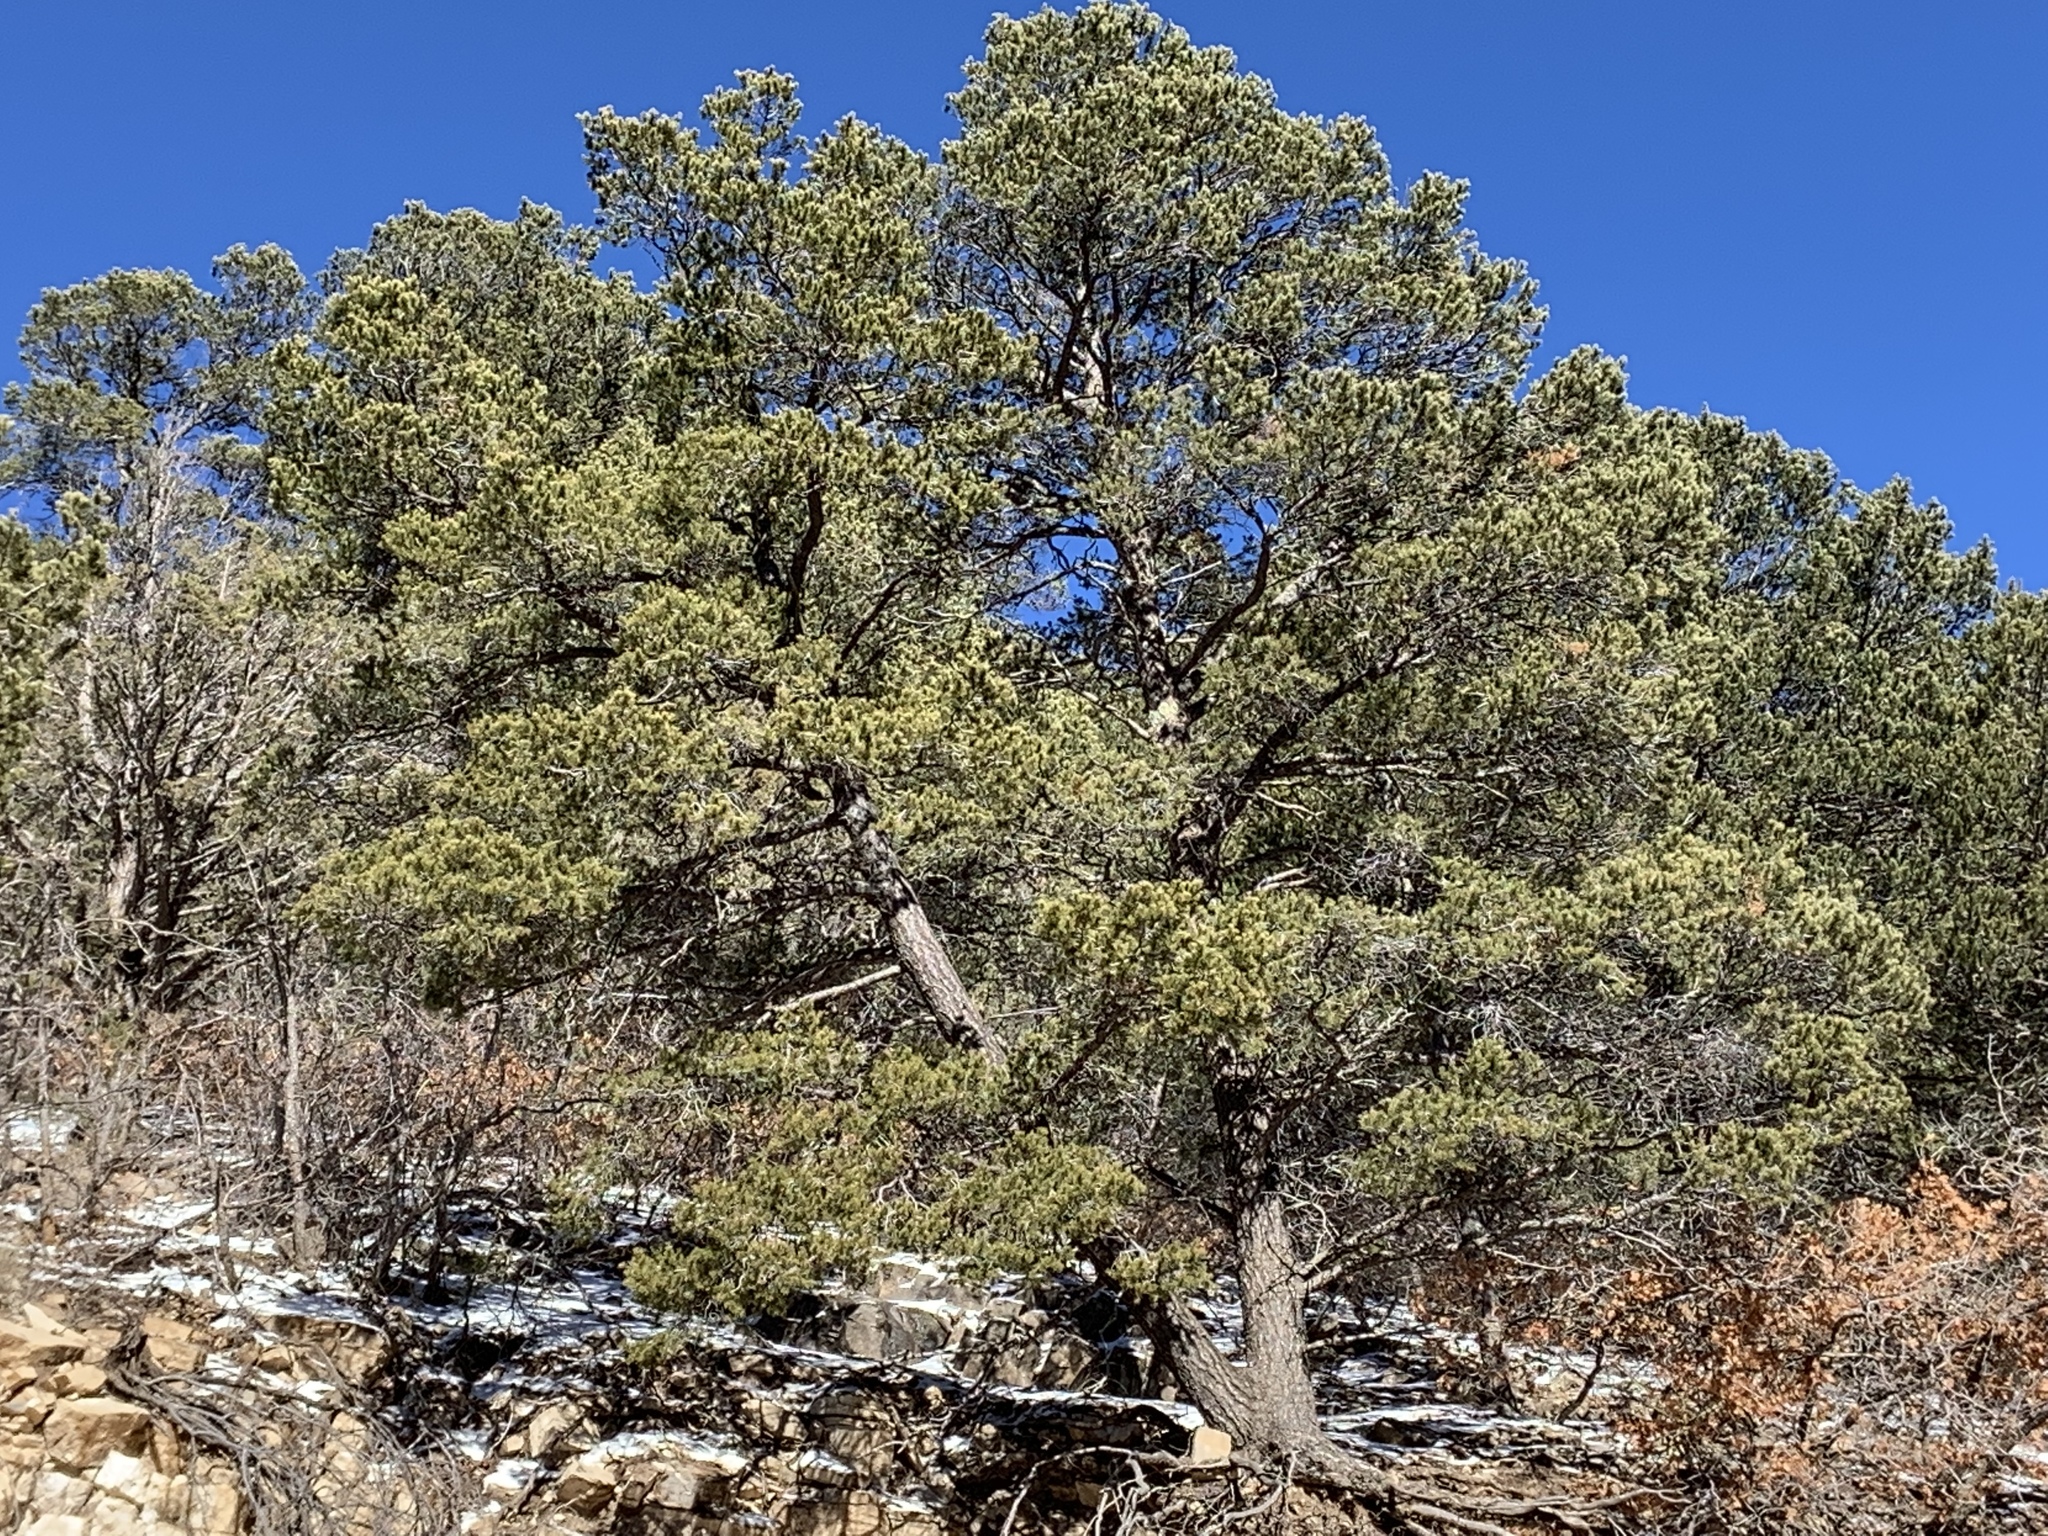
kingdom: Plantae
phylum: Tracheophyta
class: Pinopsida
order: Pinales
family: Pinaceae
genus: Pinus
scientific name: Pinus edulis
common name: Colorado pinyon
